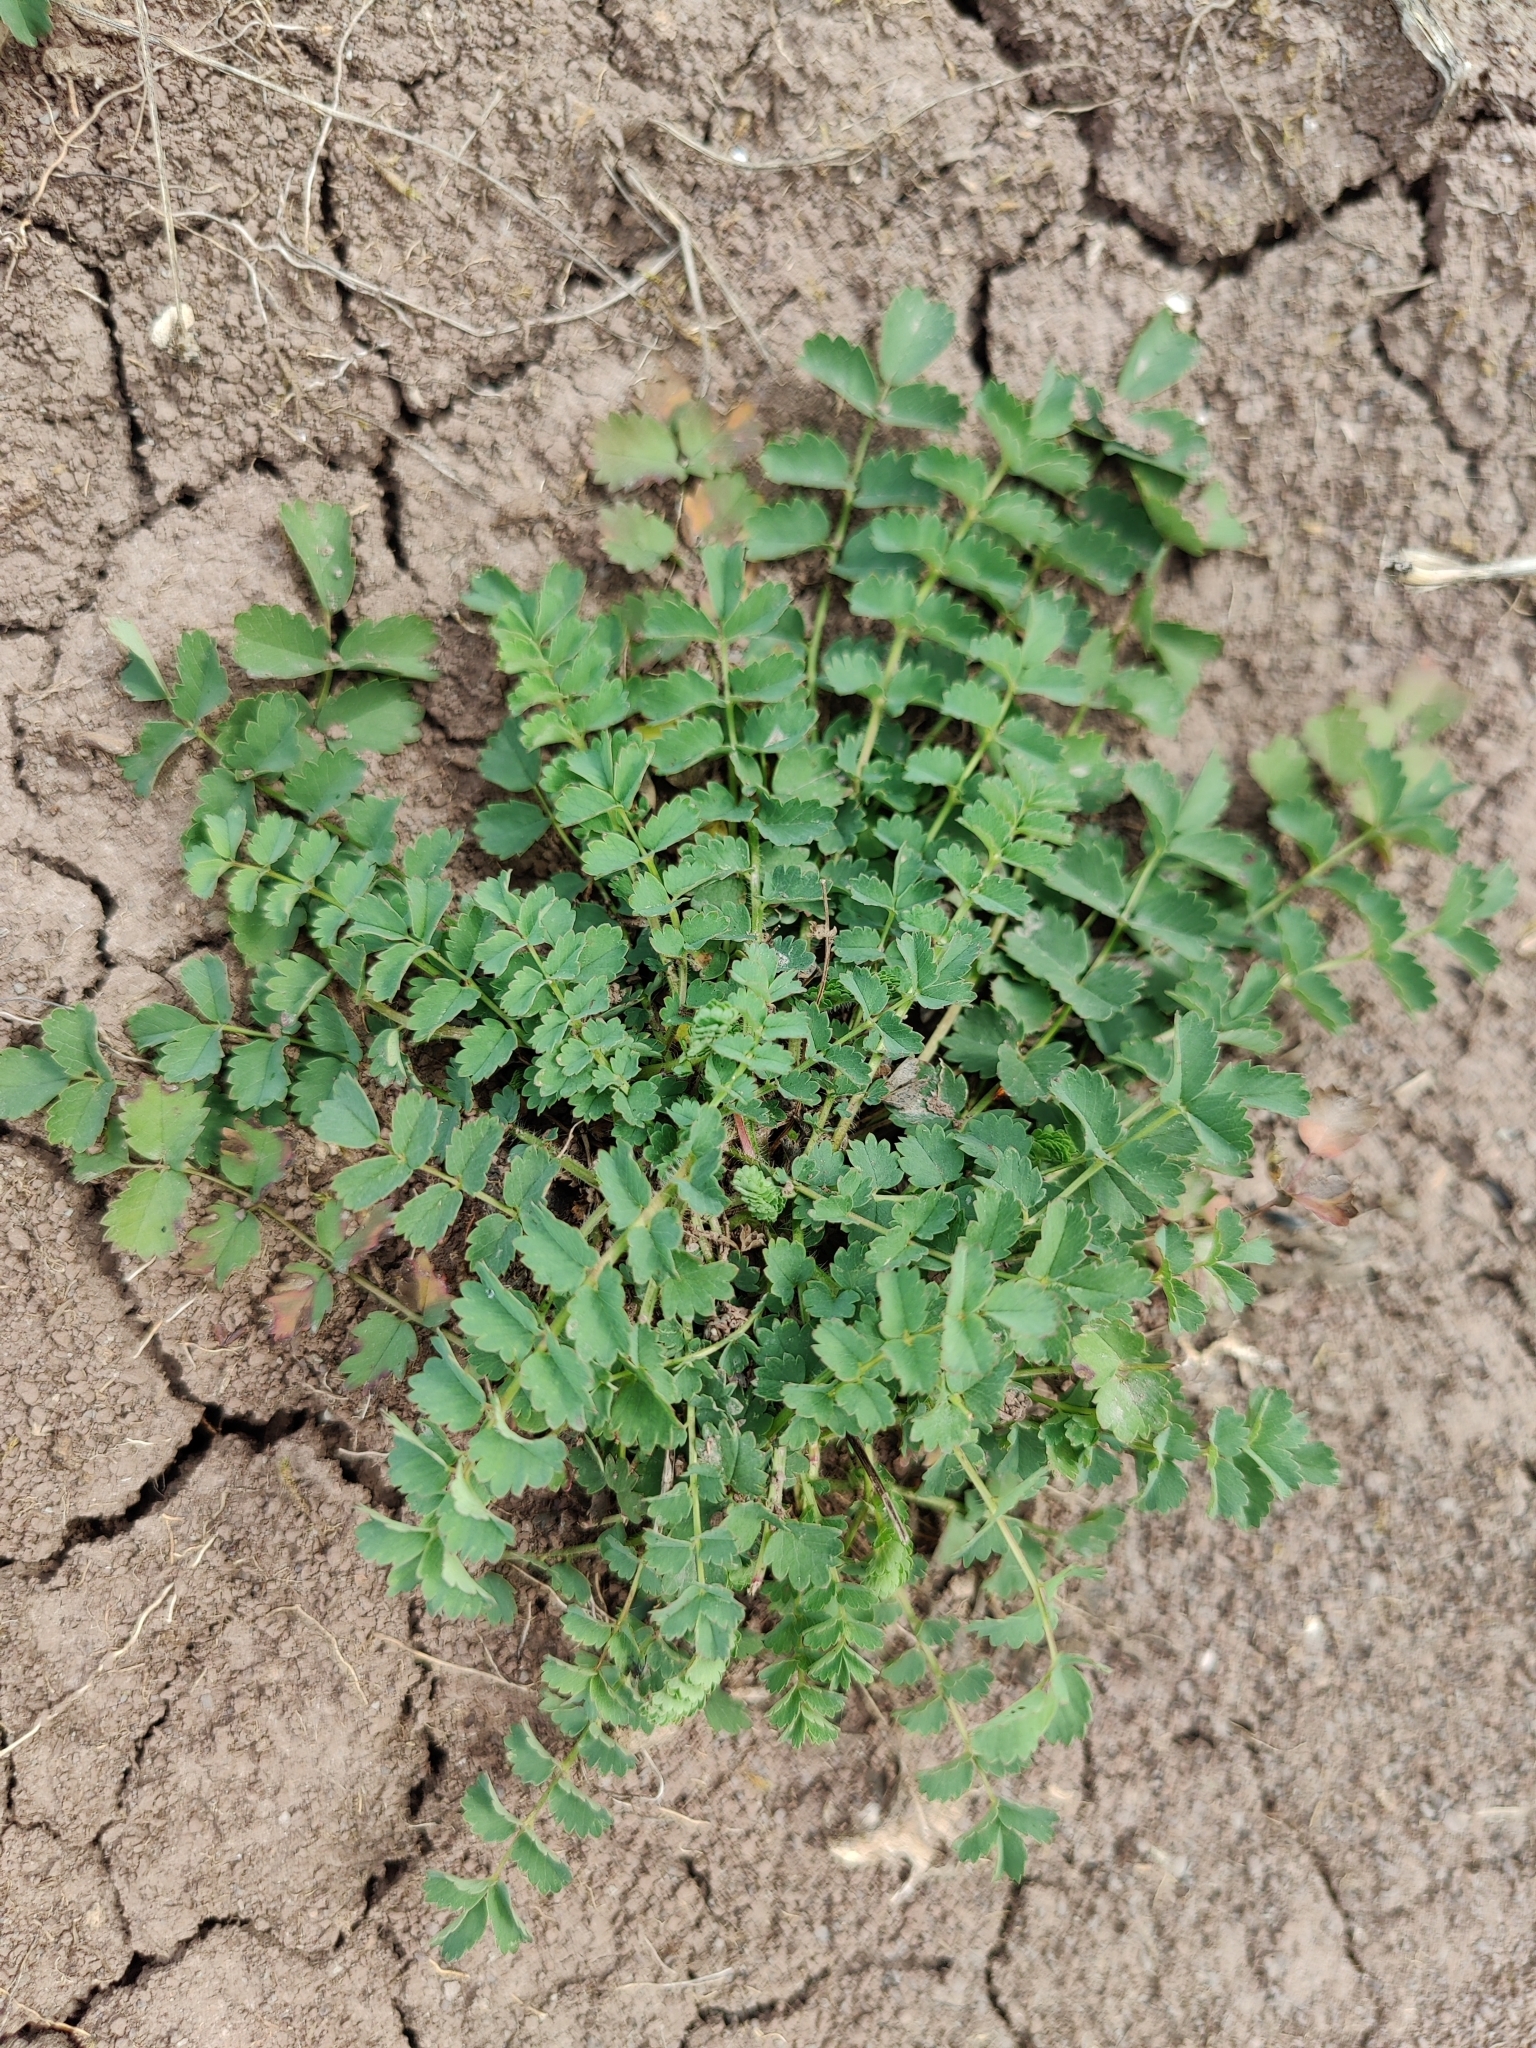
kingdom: Plantae
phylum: Tracheophyta
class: Magnoliopsida
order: Rosales
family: Rosaceae
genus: Poterium
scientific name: Poterium sanguisorba
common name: Salad burnet
